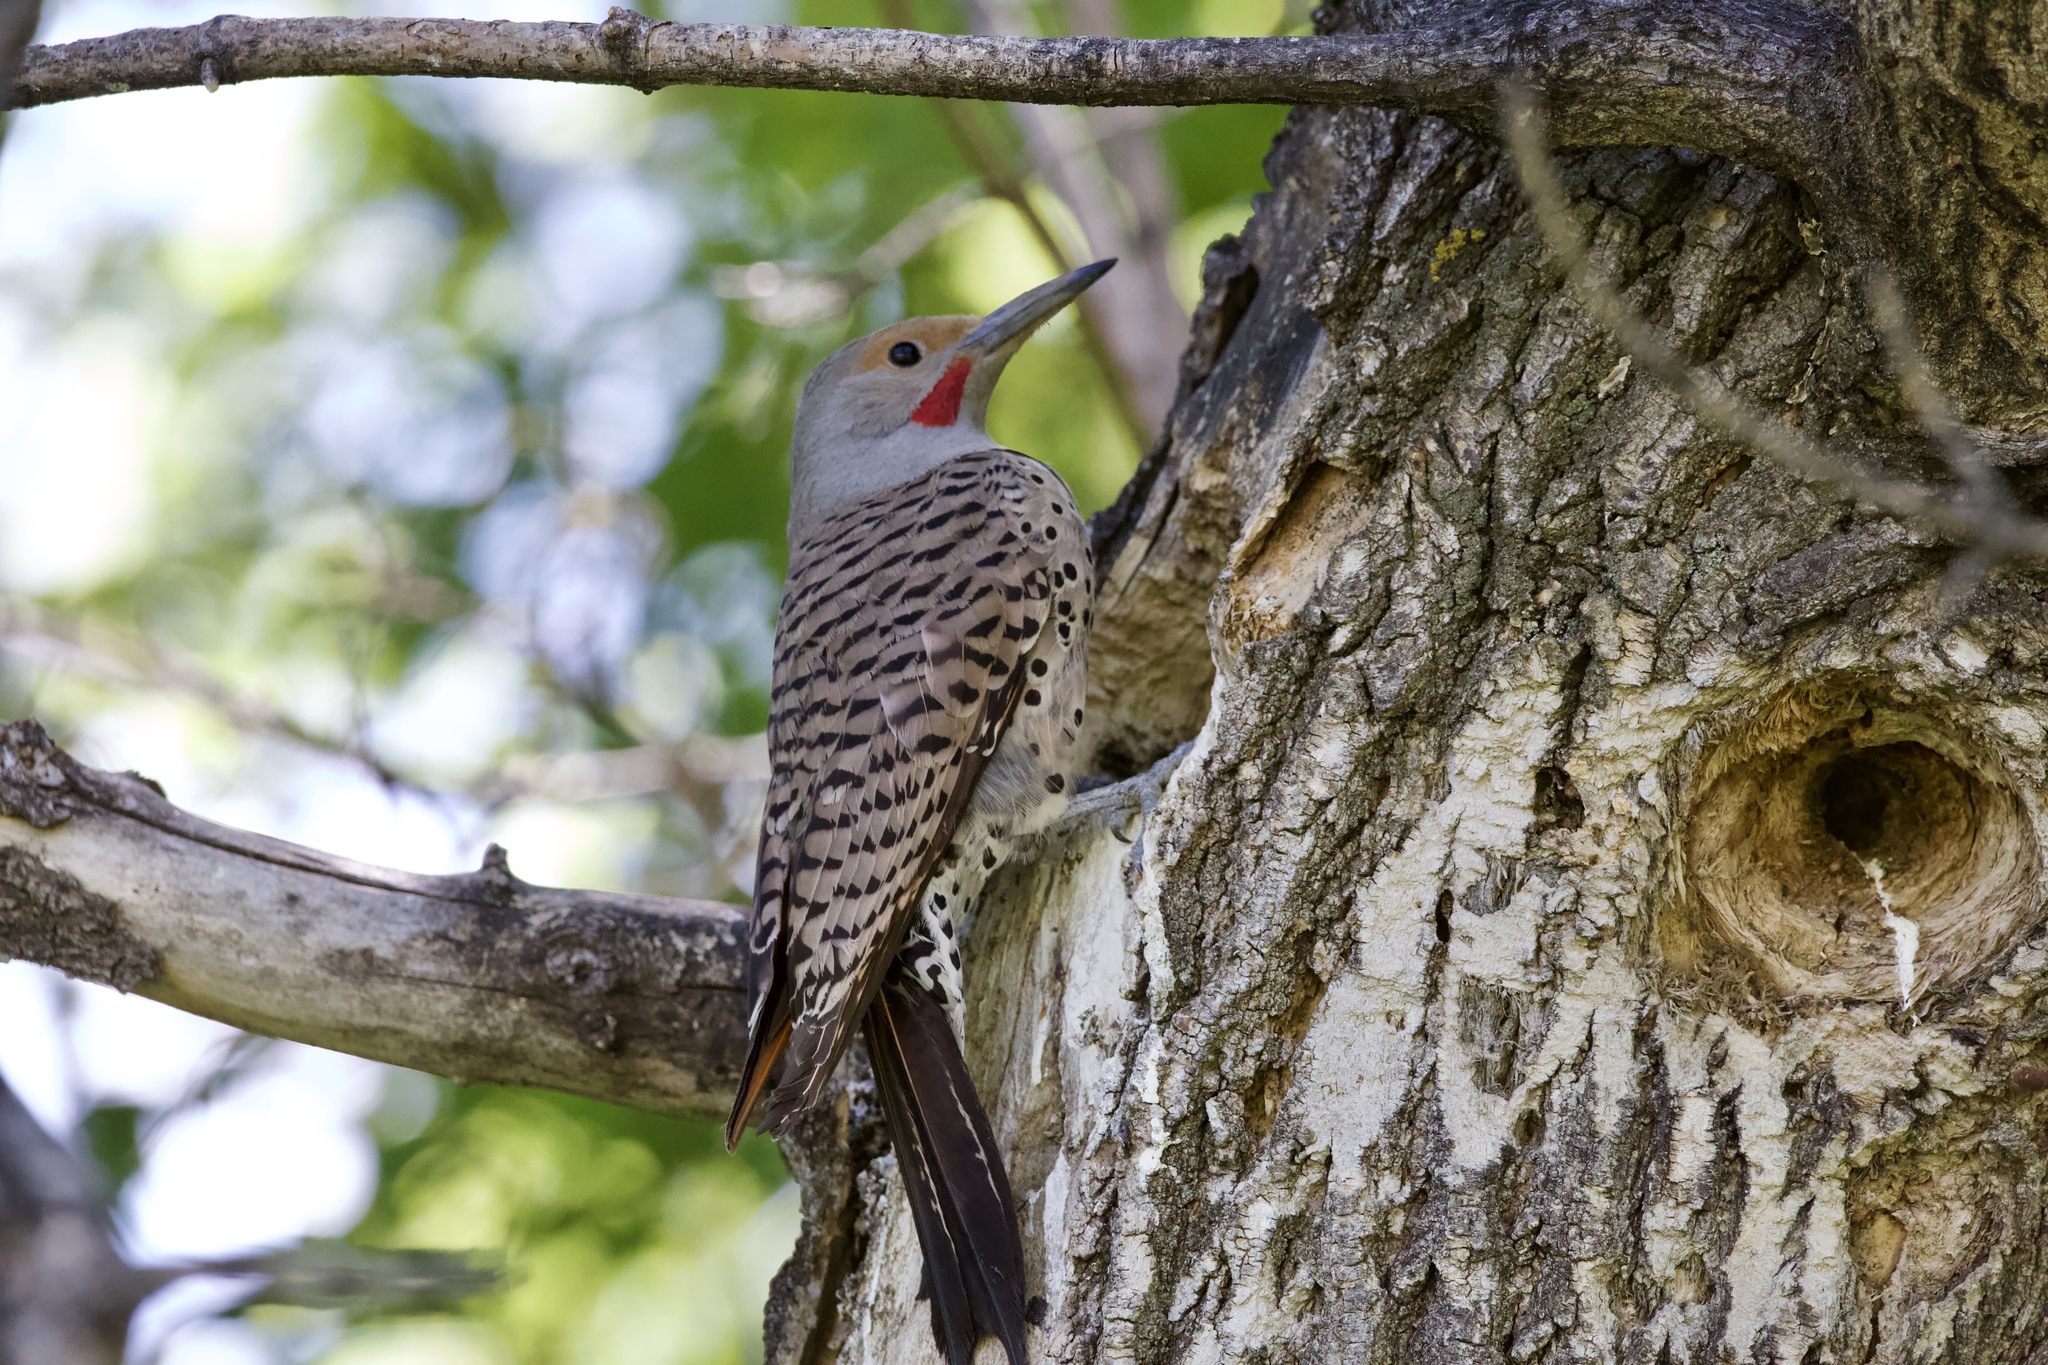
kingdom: Animalia
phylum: Chordata
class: Aves
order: Piciformes
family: Picidae
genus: Colaptes
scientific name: Colaptes auratus
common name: Northern flicker
